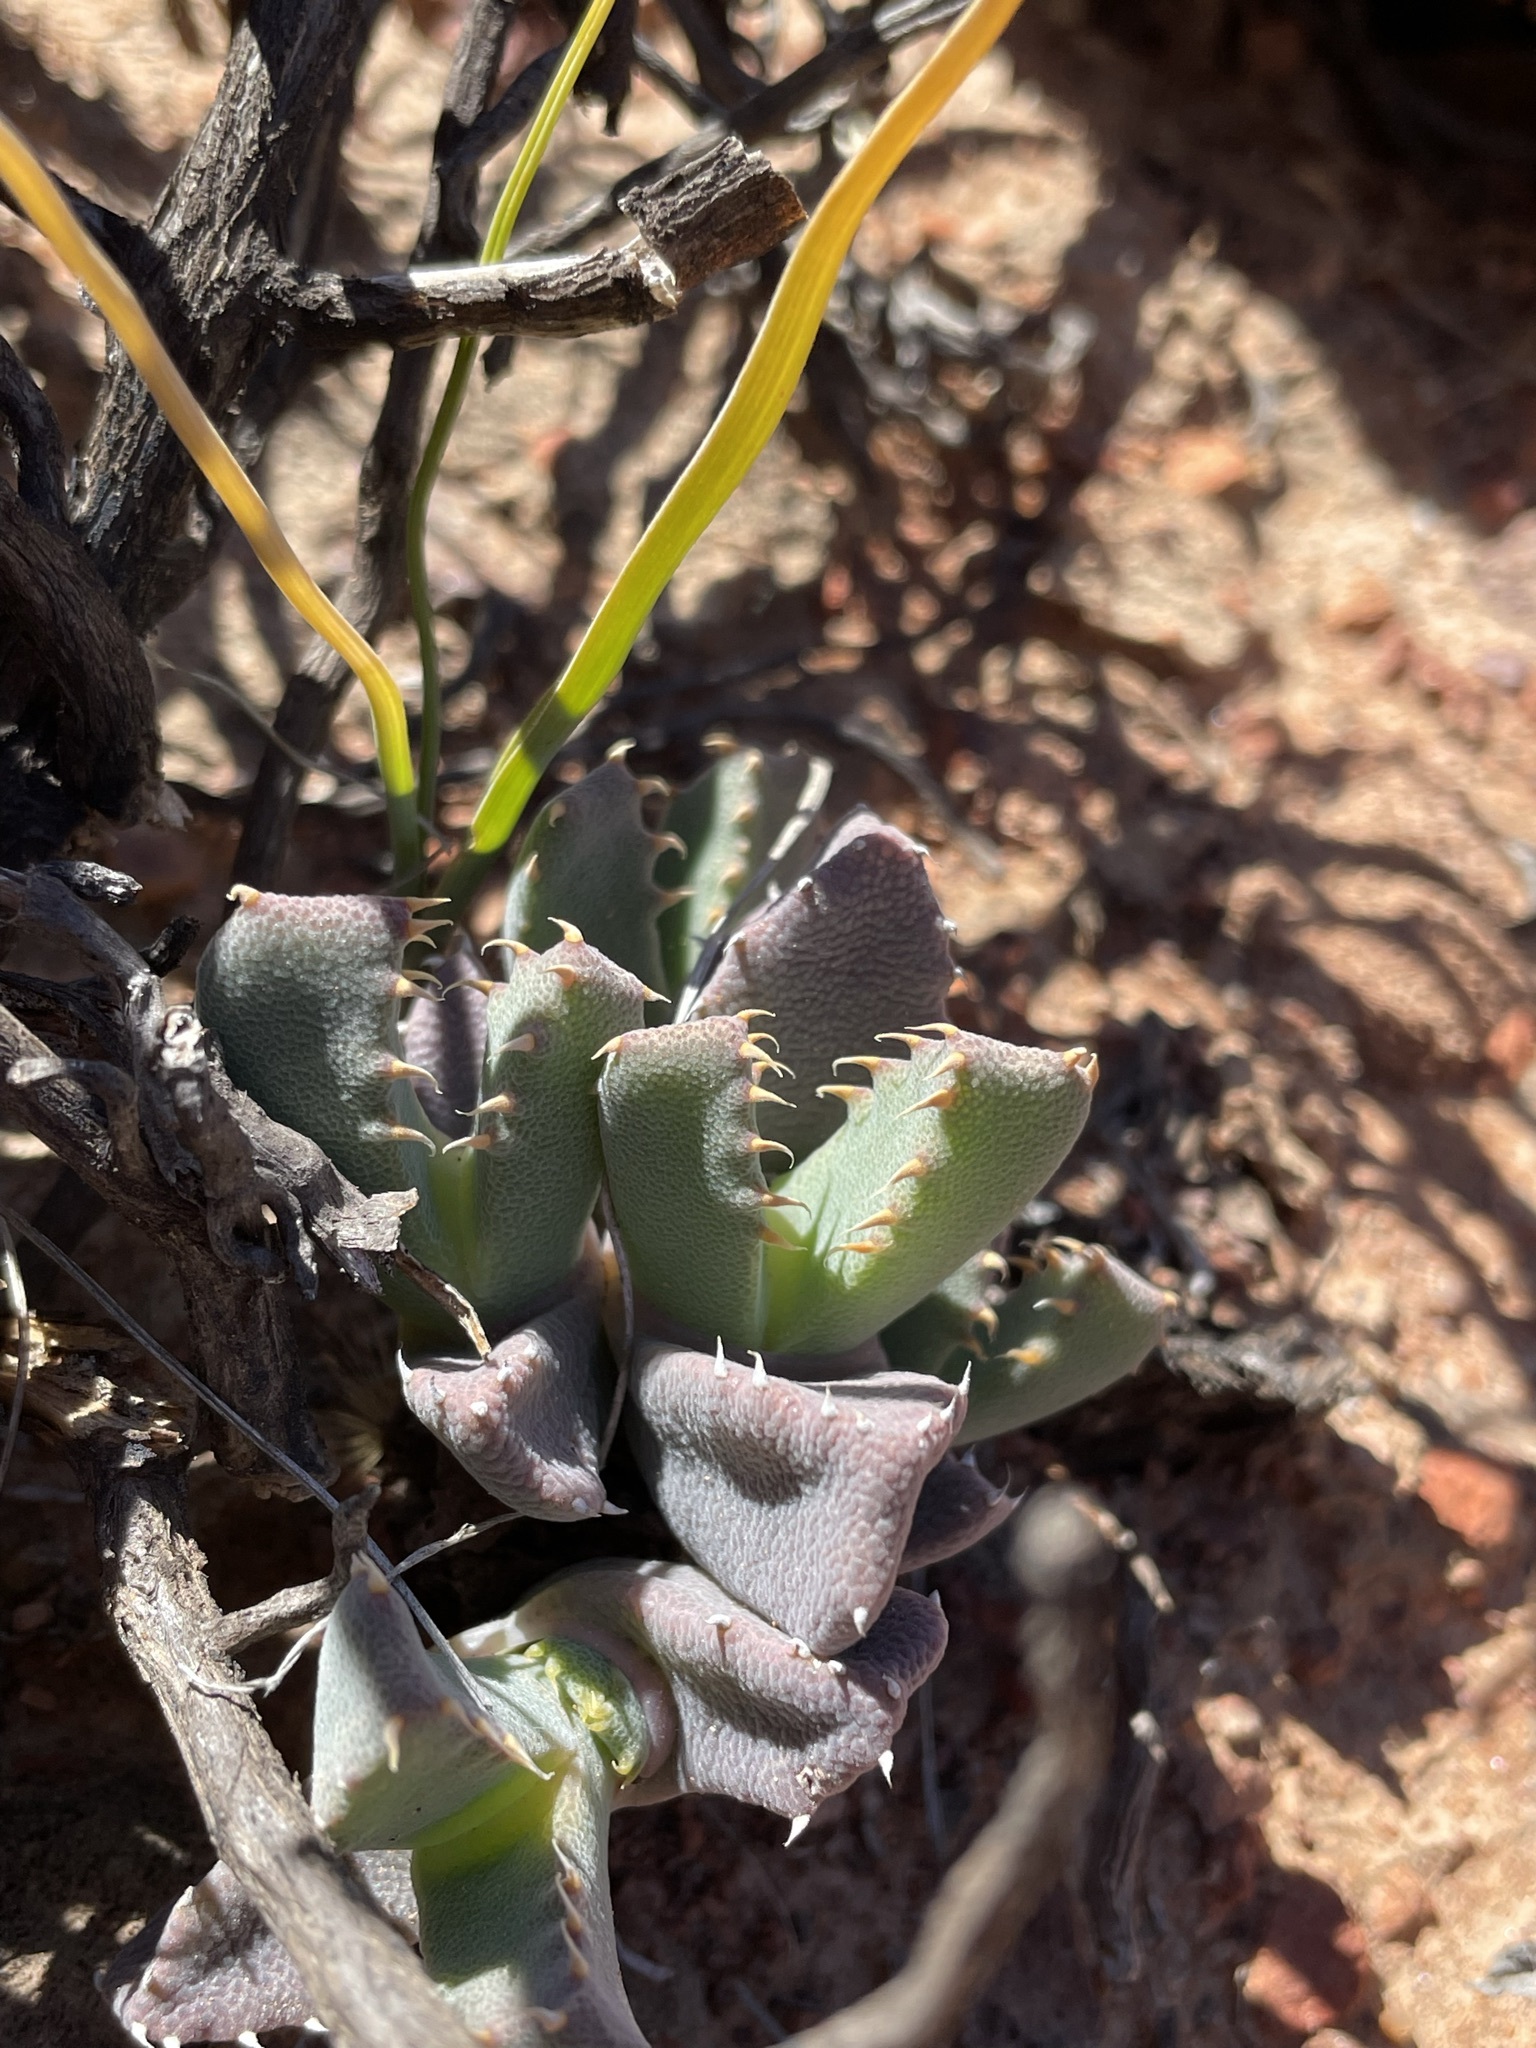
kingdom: Plantae
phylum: Tracheophyta
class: Magnoliopsida
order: Caryophyllales
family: Aizoaceae
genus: Cheiridopsis
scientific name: Cheiridopsis spiculata
